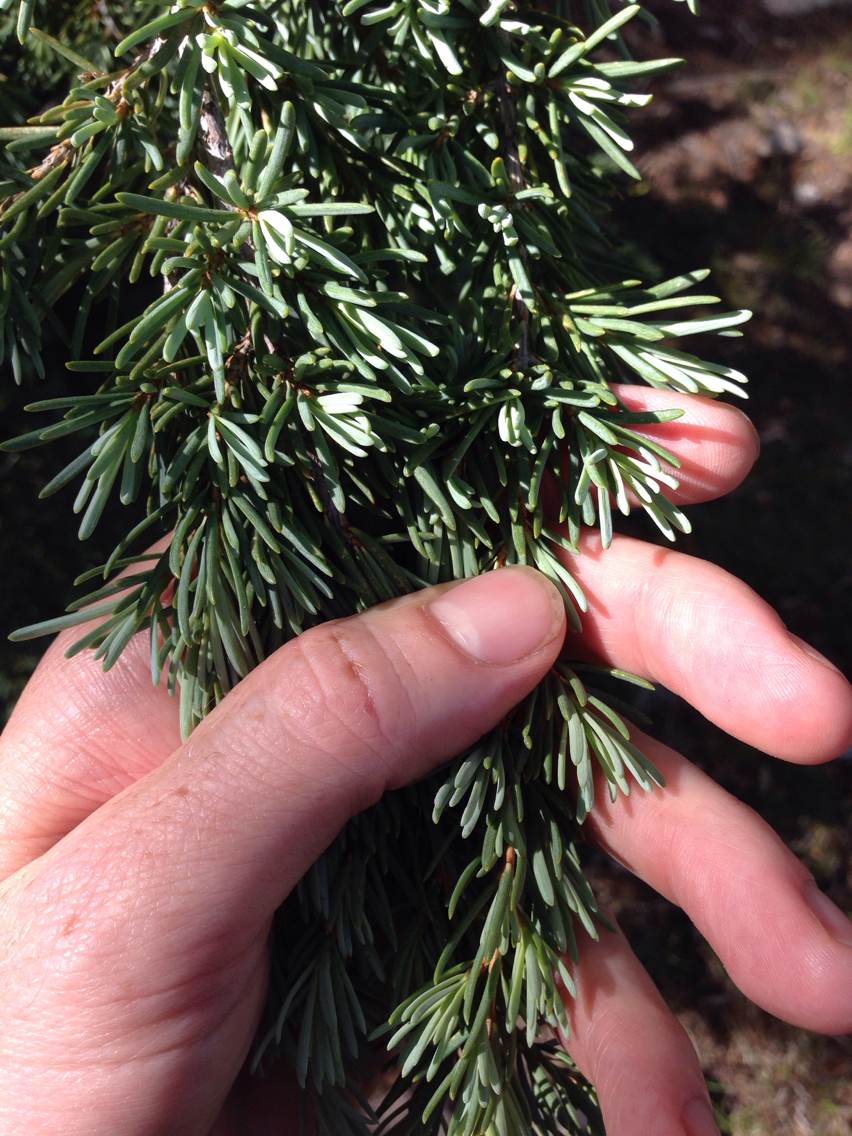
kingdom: Plantae
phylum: Tracheophyta
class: Pinopsida
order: Pinales
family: Pinaceae
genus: Tsuga
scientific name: Tsuga mertensiana
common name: Mountain hemlock
